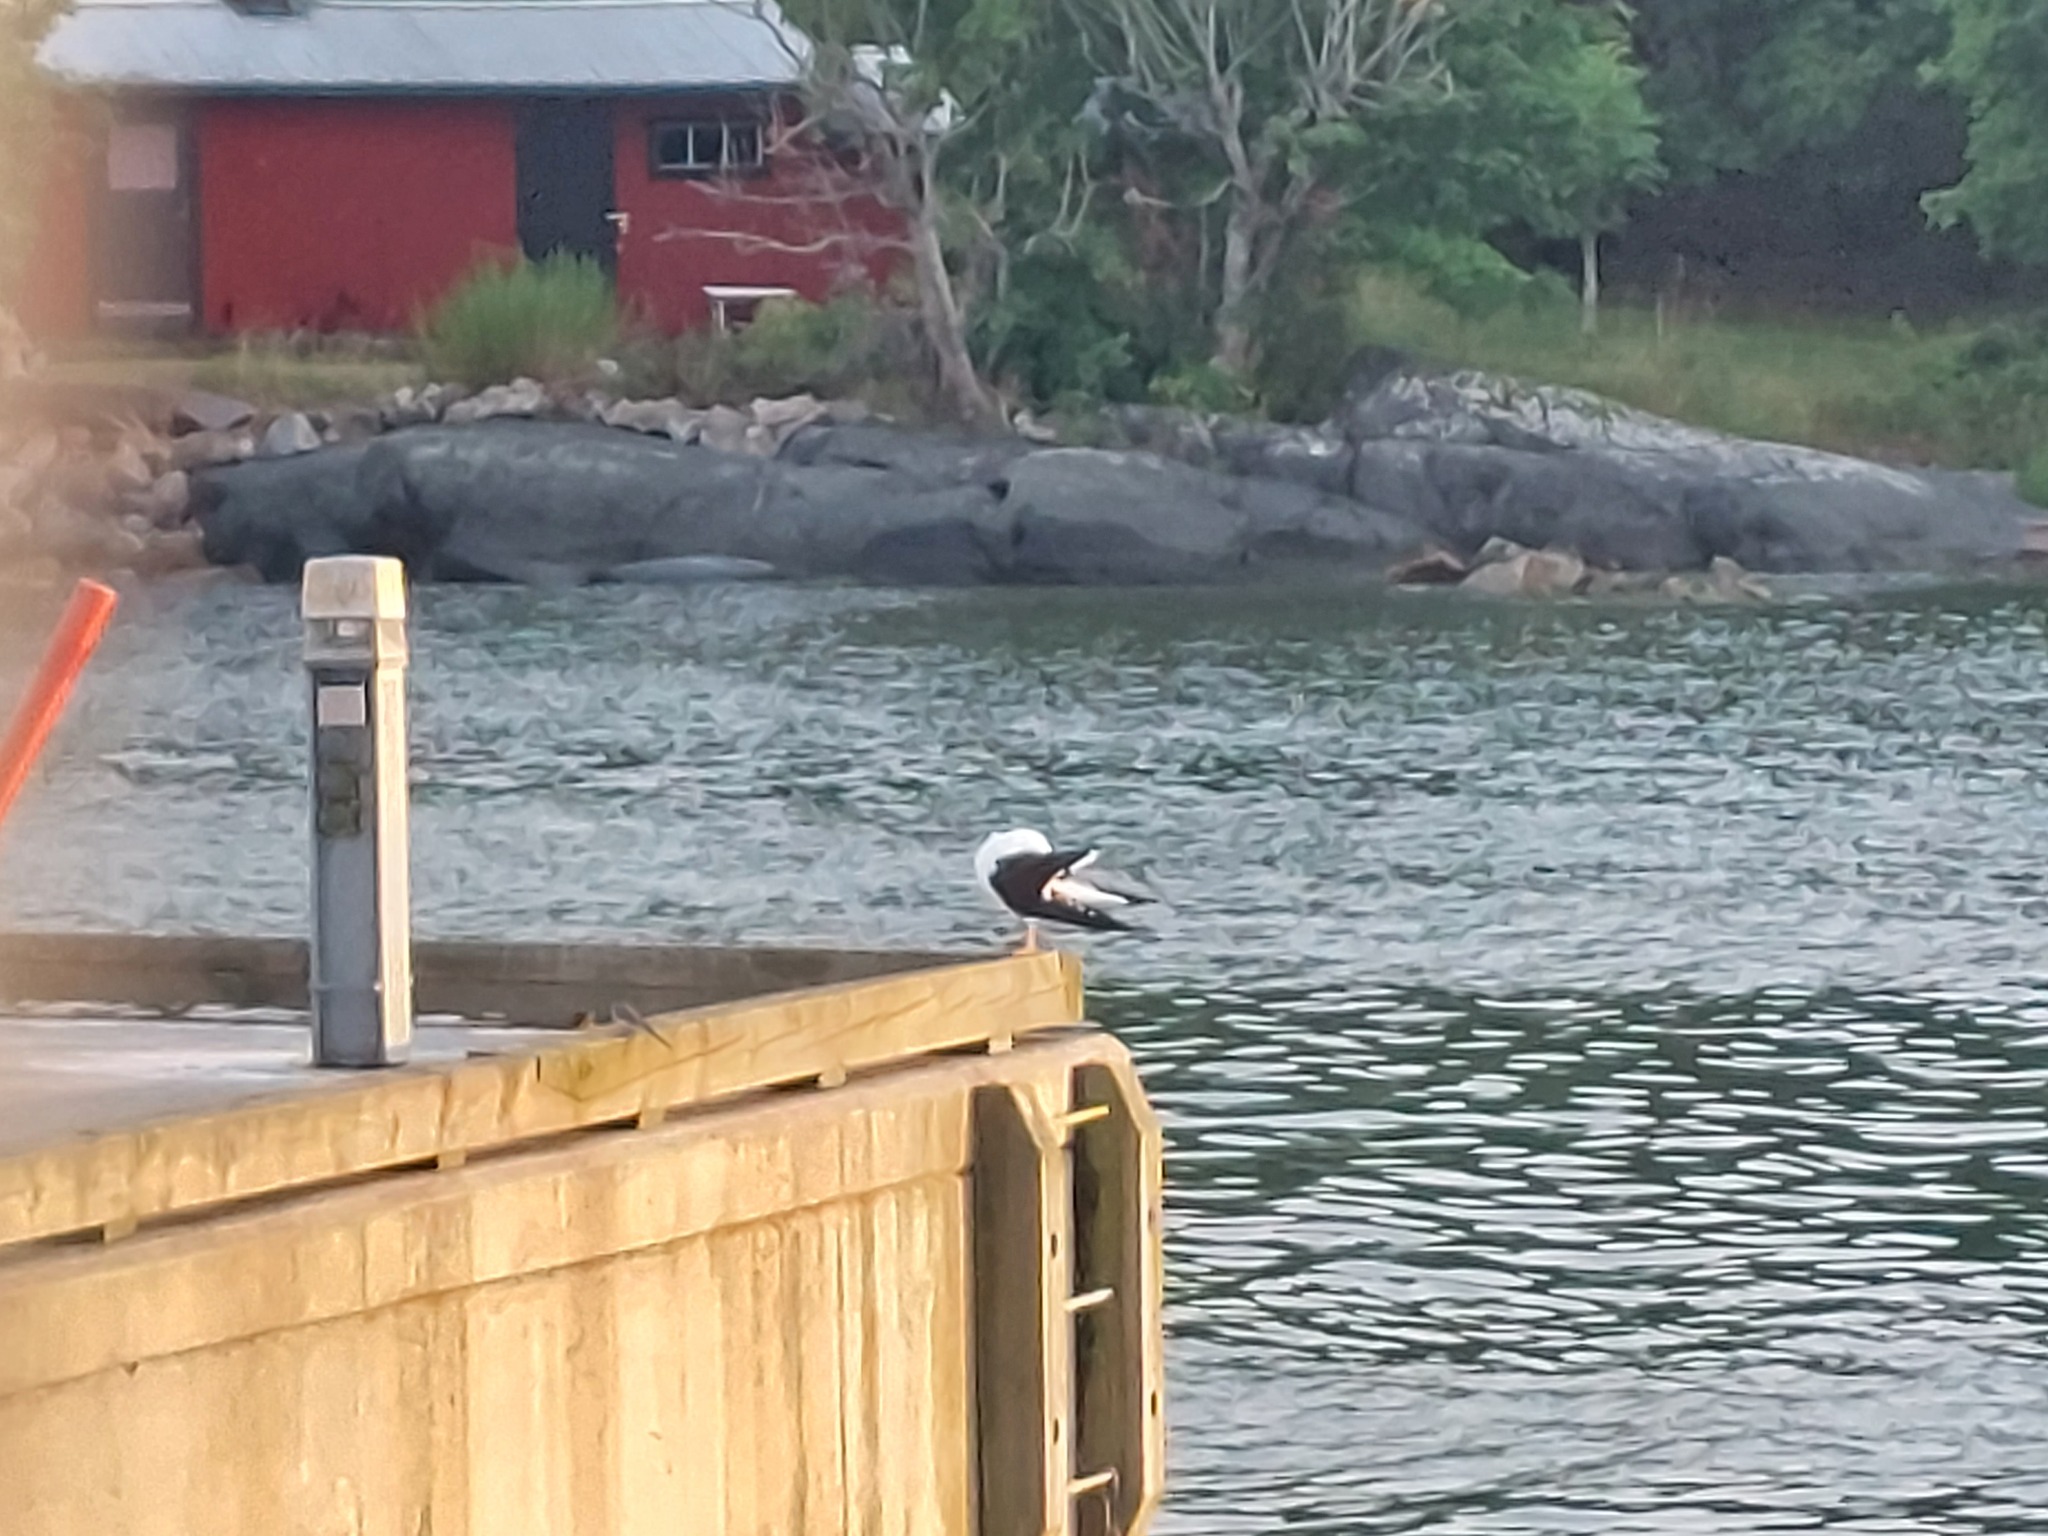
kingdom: Animalia
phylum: Chordata
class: Aves
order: Charadriiformes
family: Laridae
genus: Larus
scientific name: Larus fuscus
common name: Lesser black-backed gull
